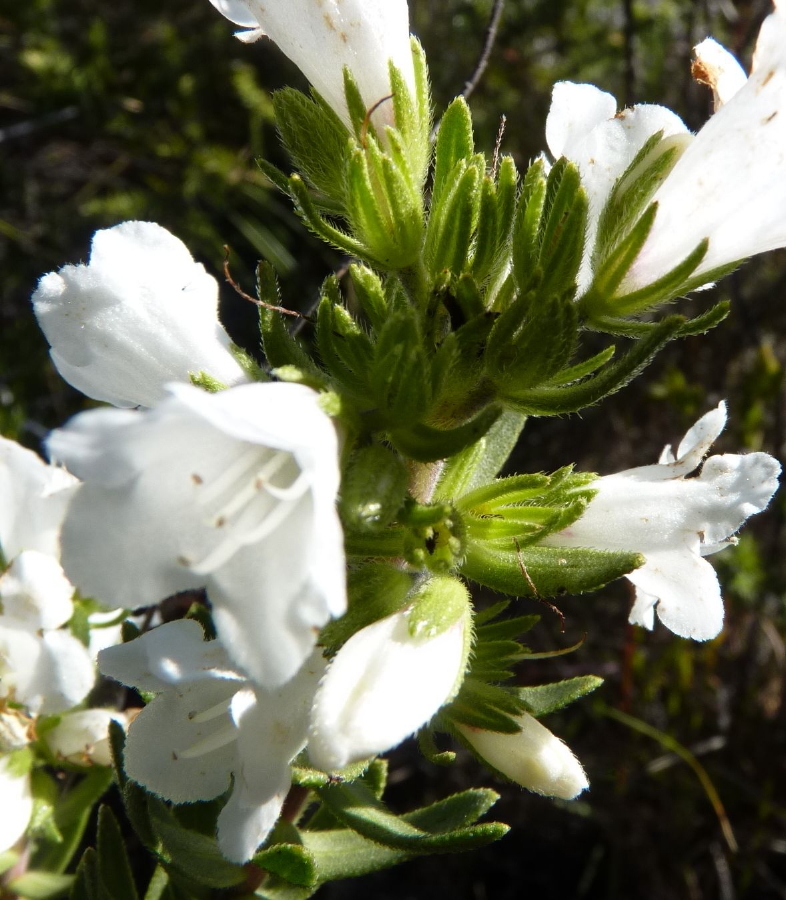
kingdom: Plantae
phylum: Tracheophyta
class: Magnoliopsida
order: Boraginales
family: Boraginaceae
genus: Lobostemon
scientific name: Lobostemon marlothii
